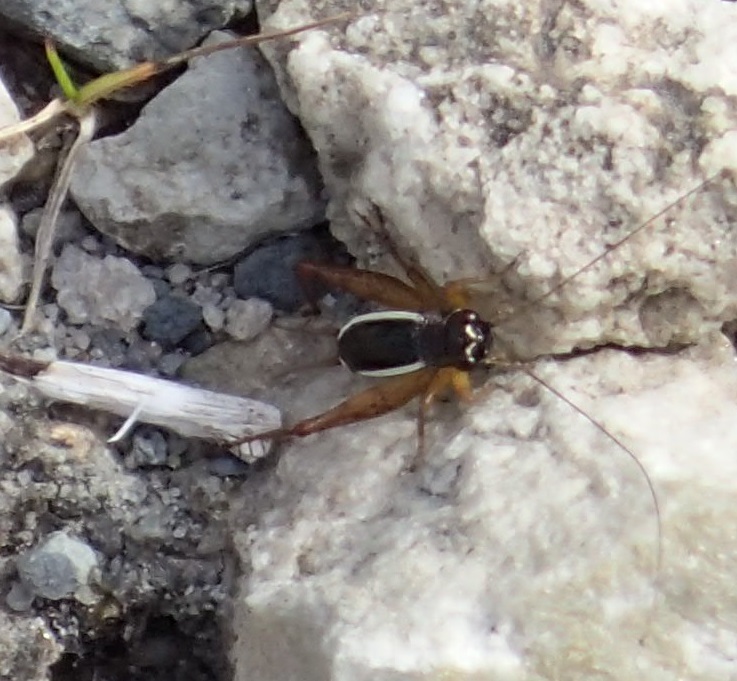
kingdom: Animalia
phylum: Arthropoda
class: Insecta
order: Orthoptera
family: Trigonidiidae
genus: Trigonidium
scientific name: Trigonidium albovittata
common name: Handsome trig
